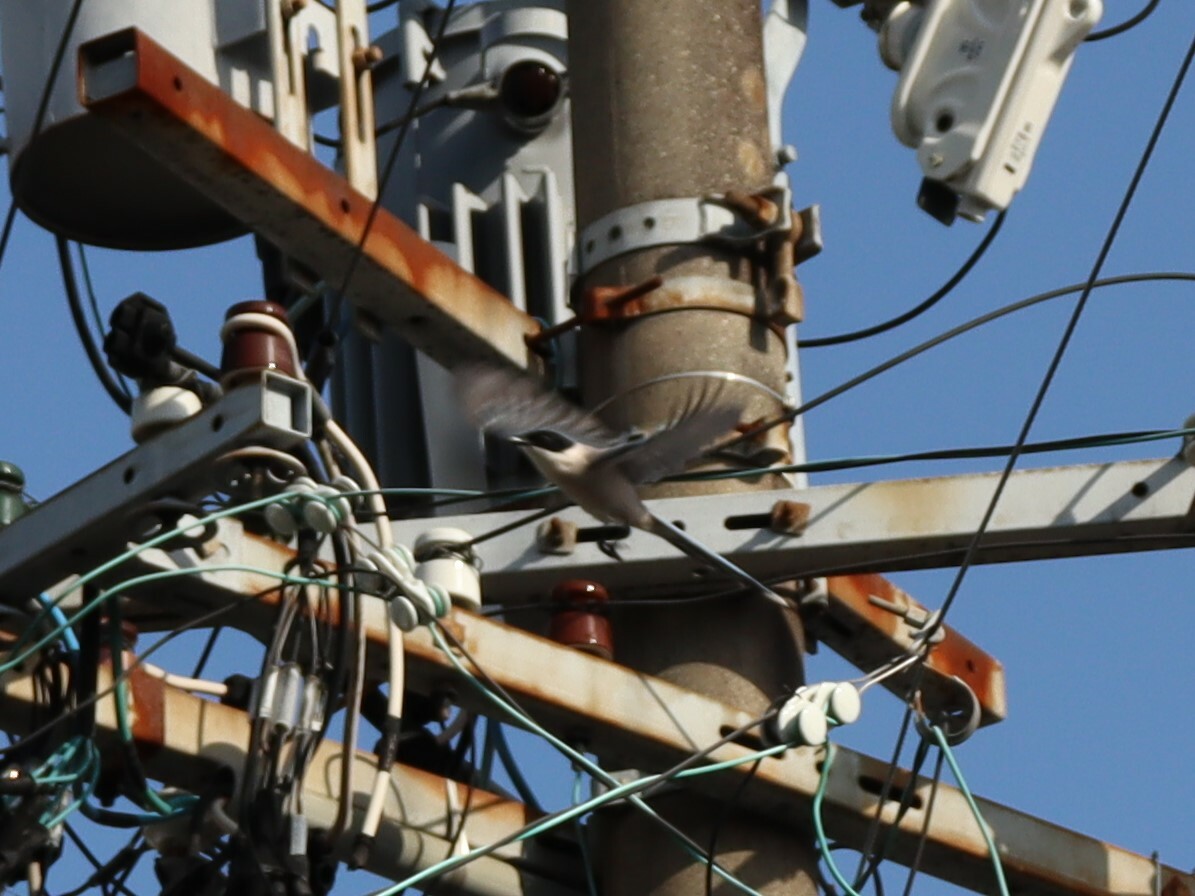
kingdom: Animalia
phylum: Chordata
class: Aves
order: Passeriformes
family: Corvidae
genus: Cyanopica
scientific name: Cyanopica cyanus
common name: Azure-winged magpie
